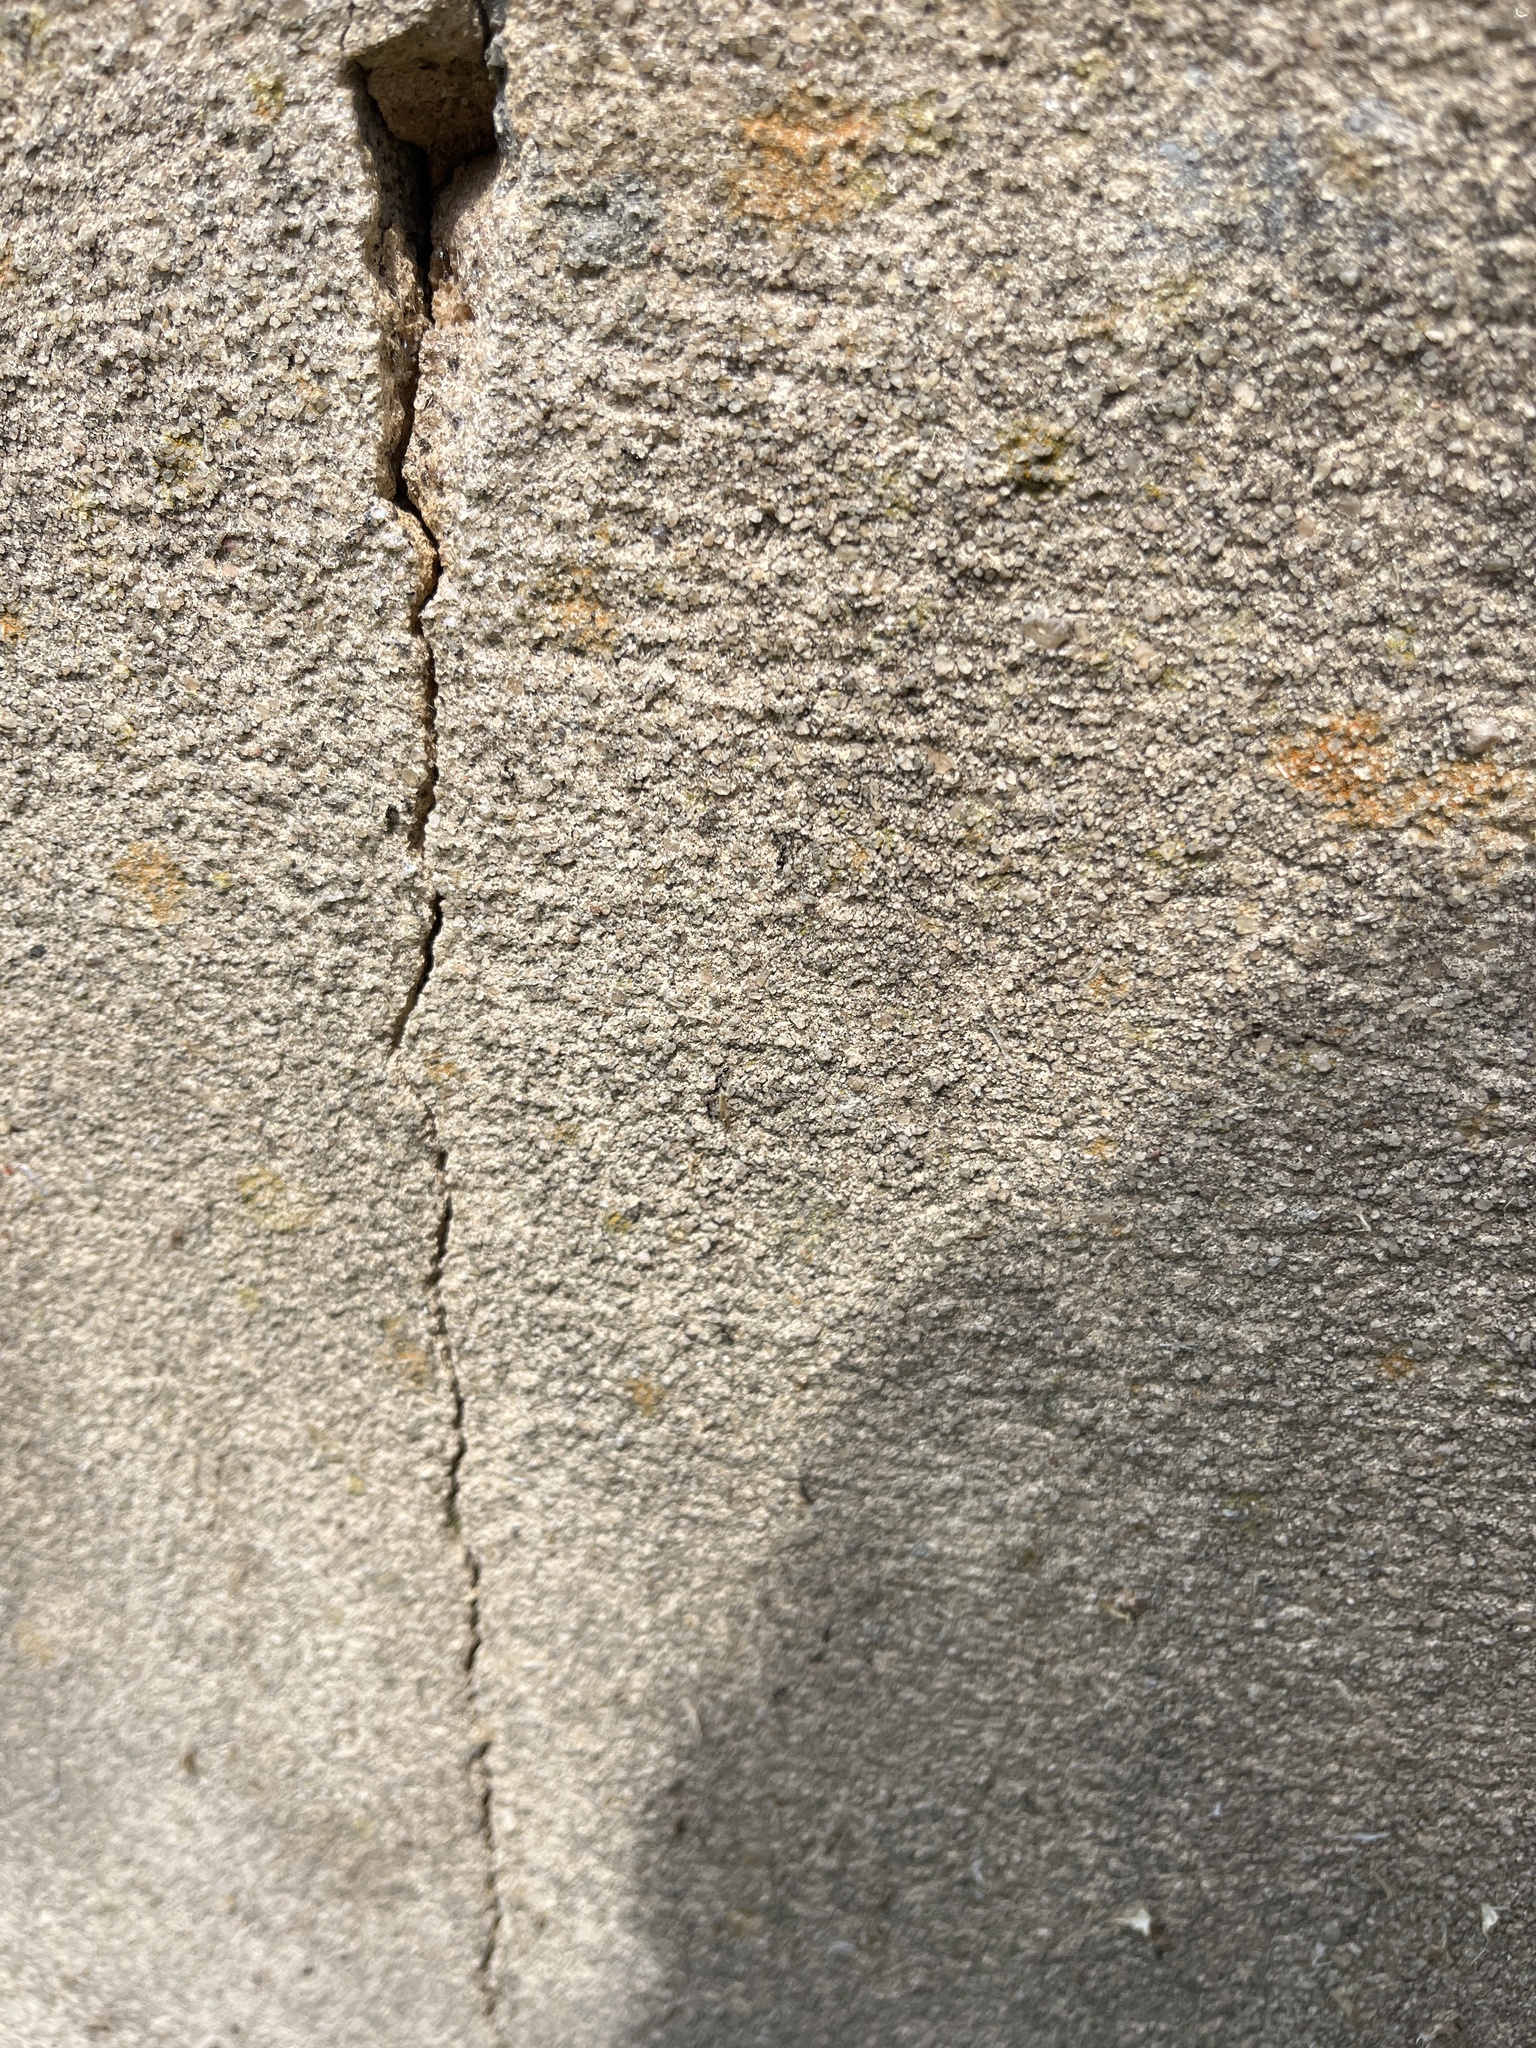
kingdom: Animalia
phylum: Arthropoda
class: Insecta
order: Hymenoptera
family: Formicidae
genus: Monomorium
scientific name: Monomorium minimum
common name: Little black ant
